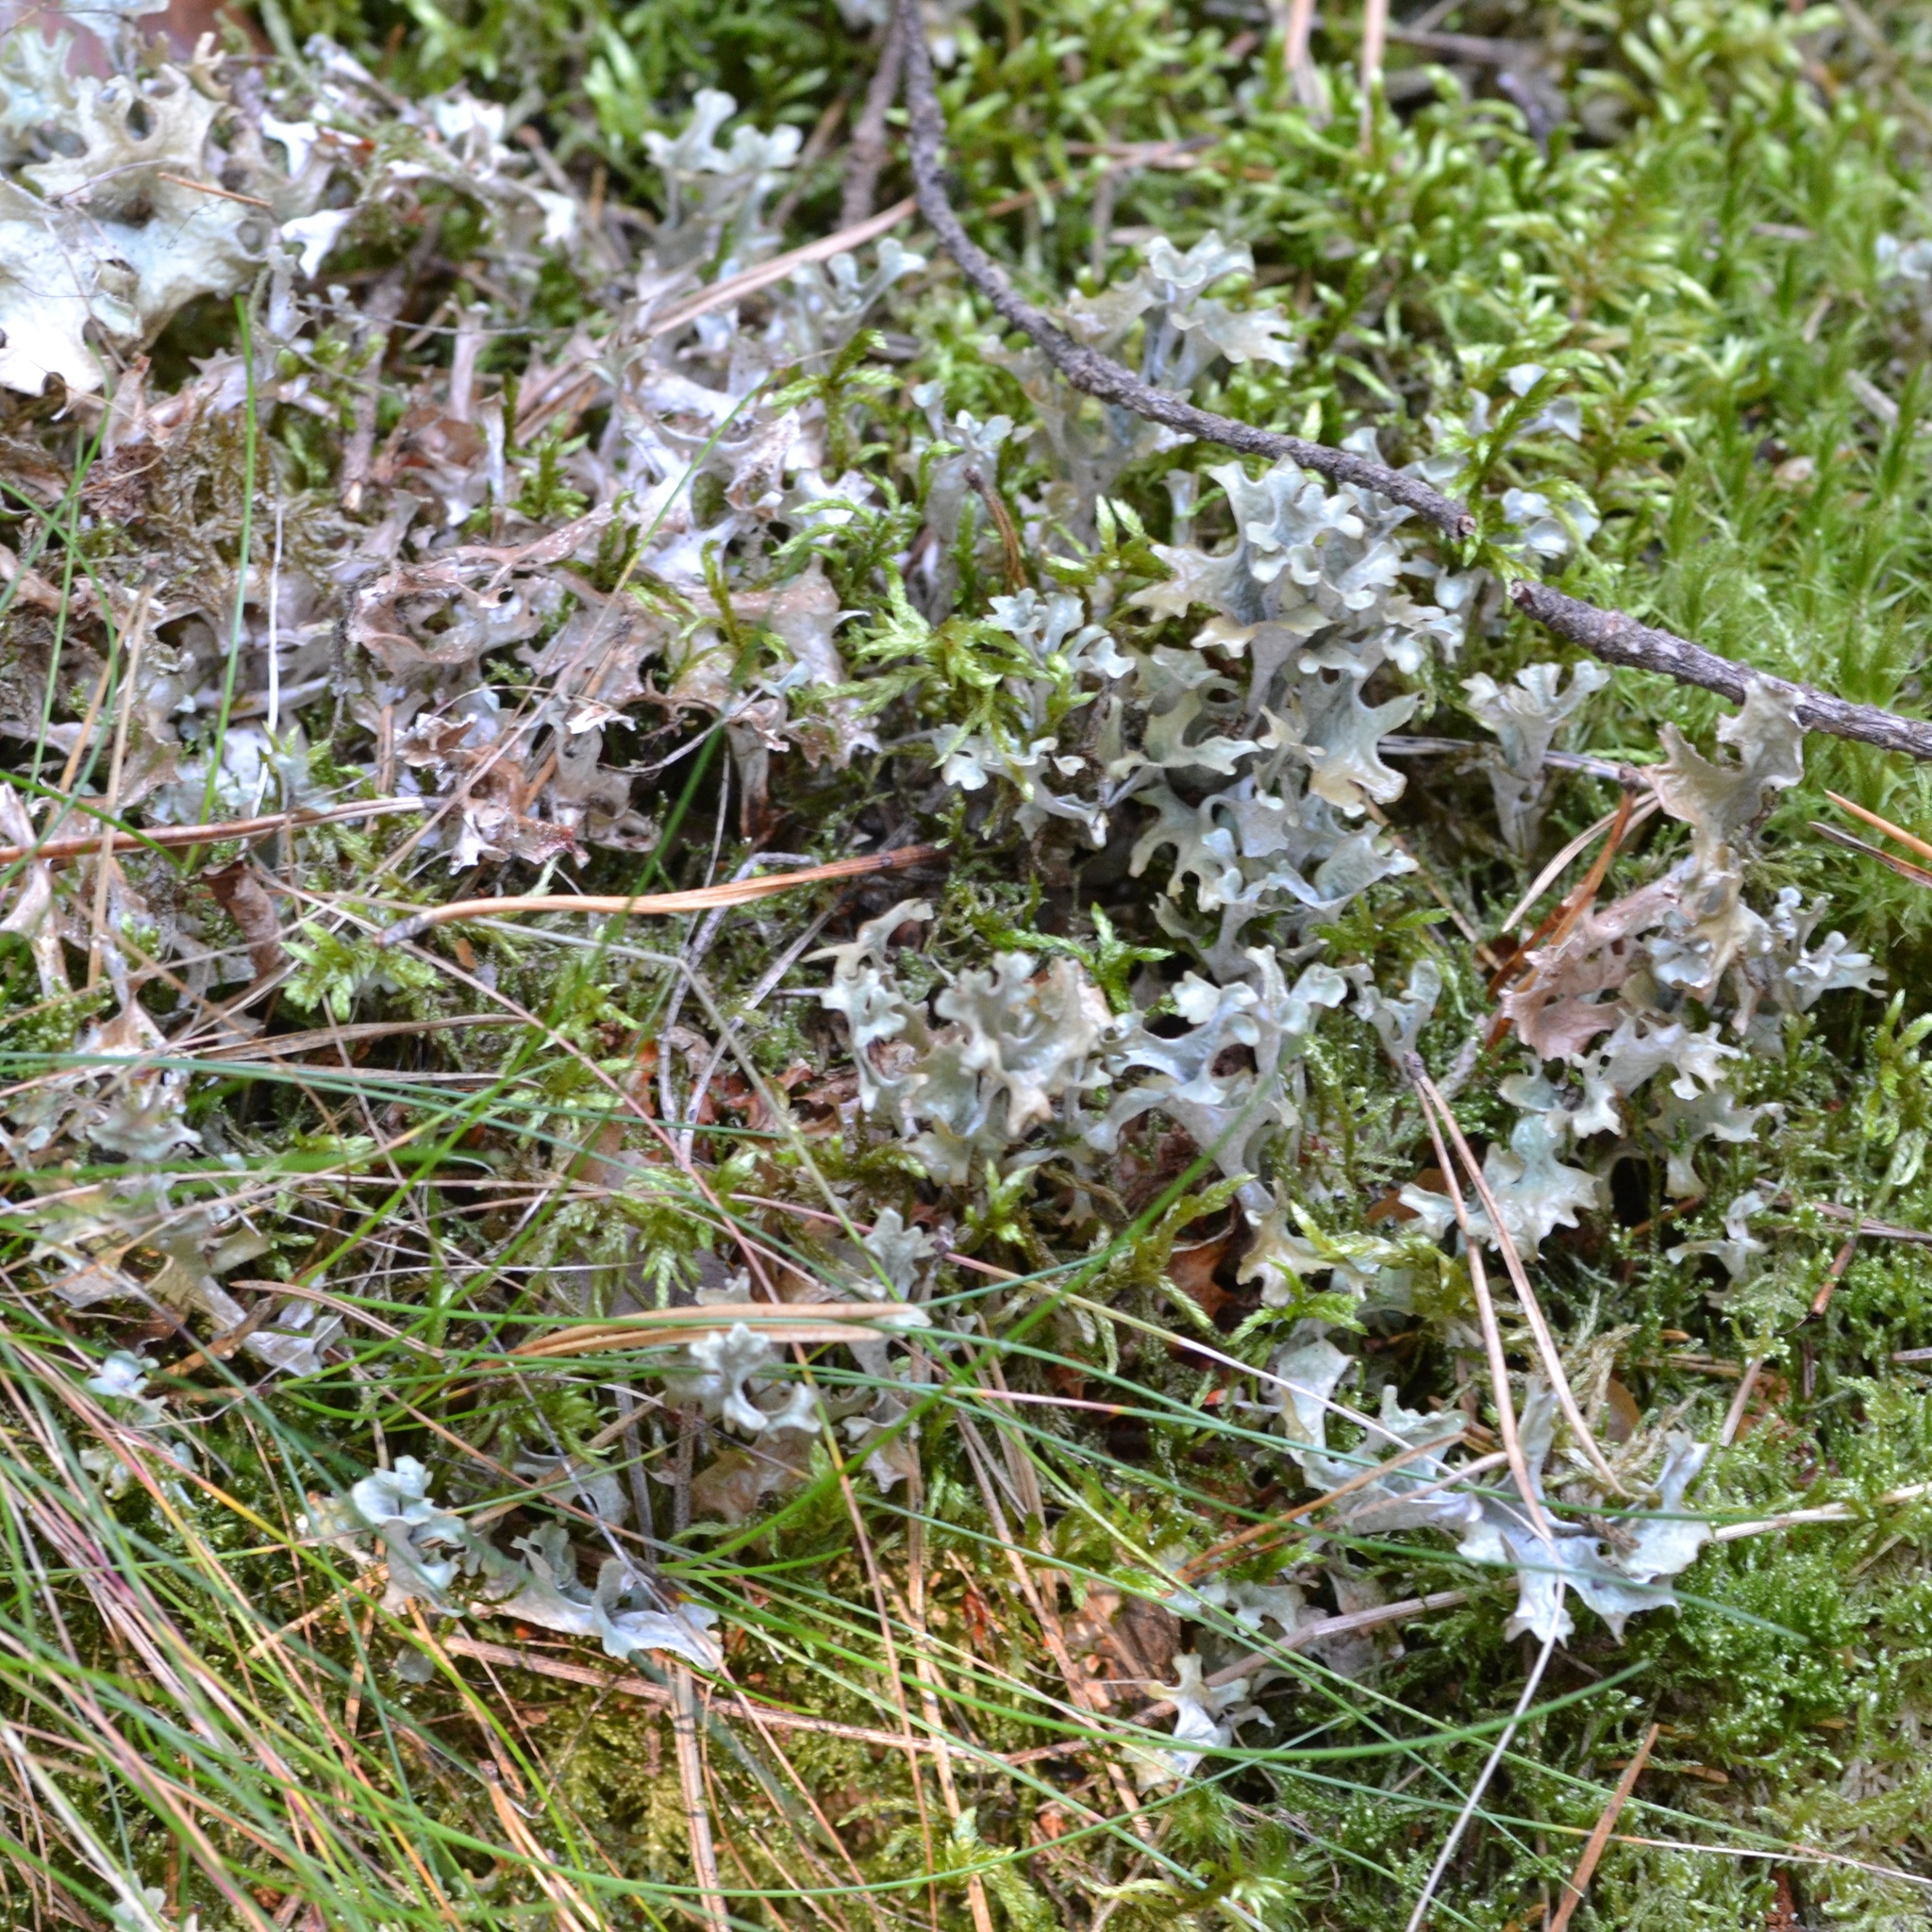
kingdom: Fungi
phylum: Ascomycota
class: Lecanoromycetes
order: Lecanorales
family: Parmeliaceae
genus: Cetraria
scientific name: Cetraria islandica
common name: Iceland lichen
